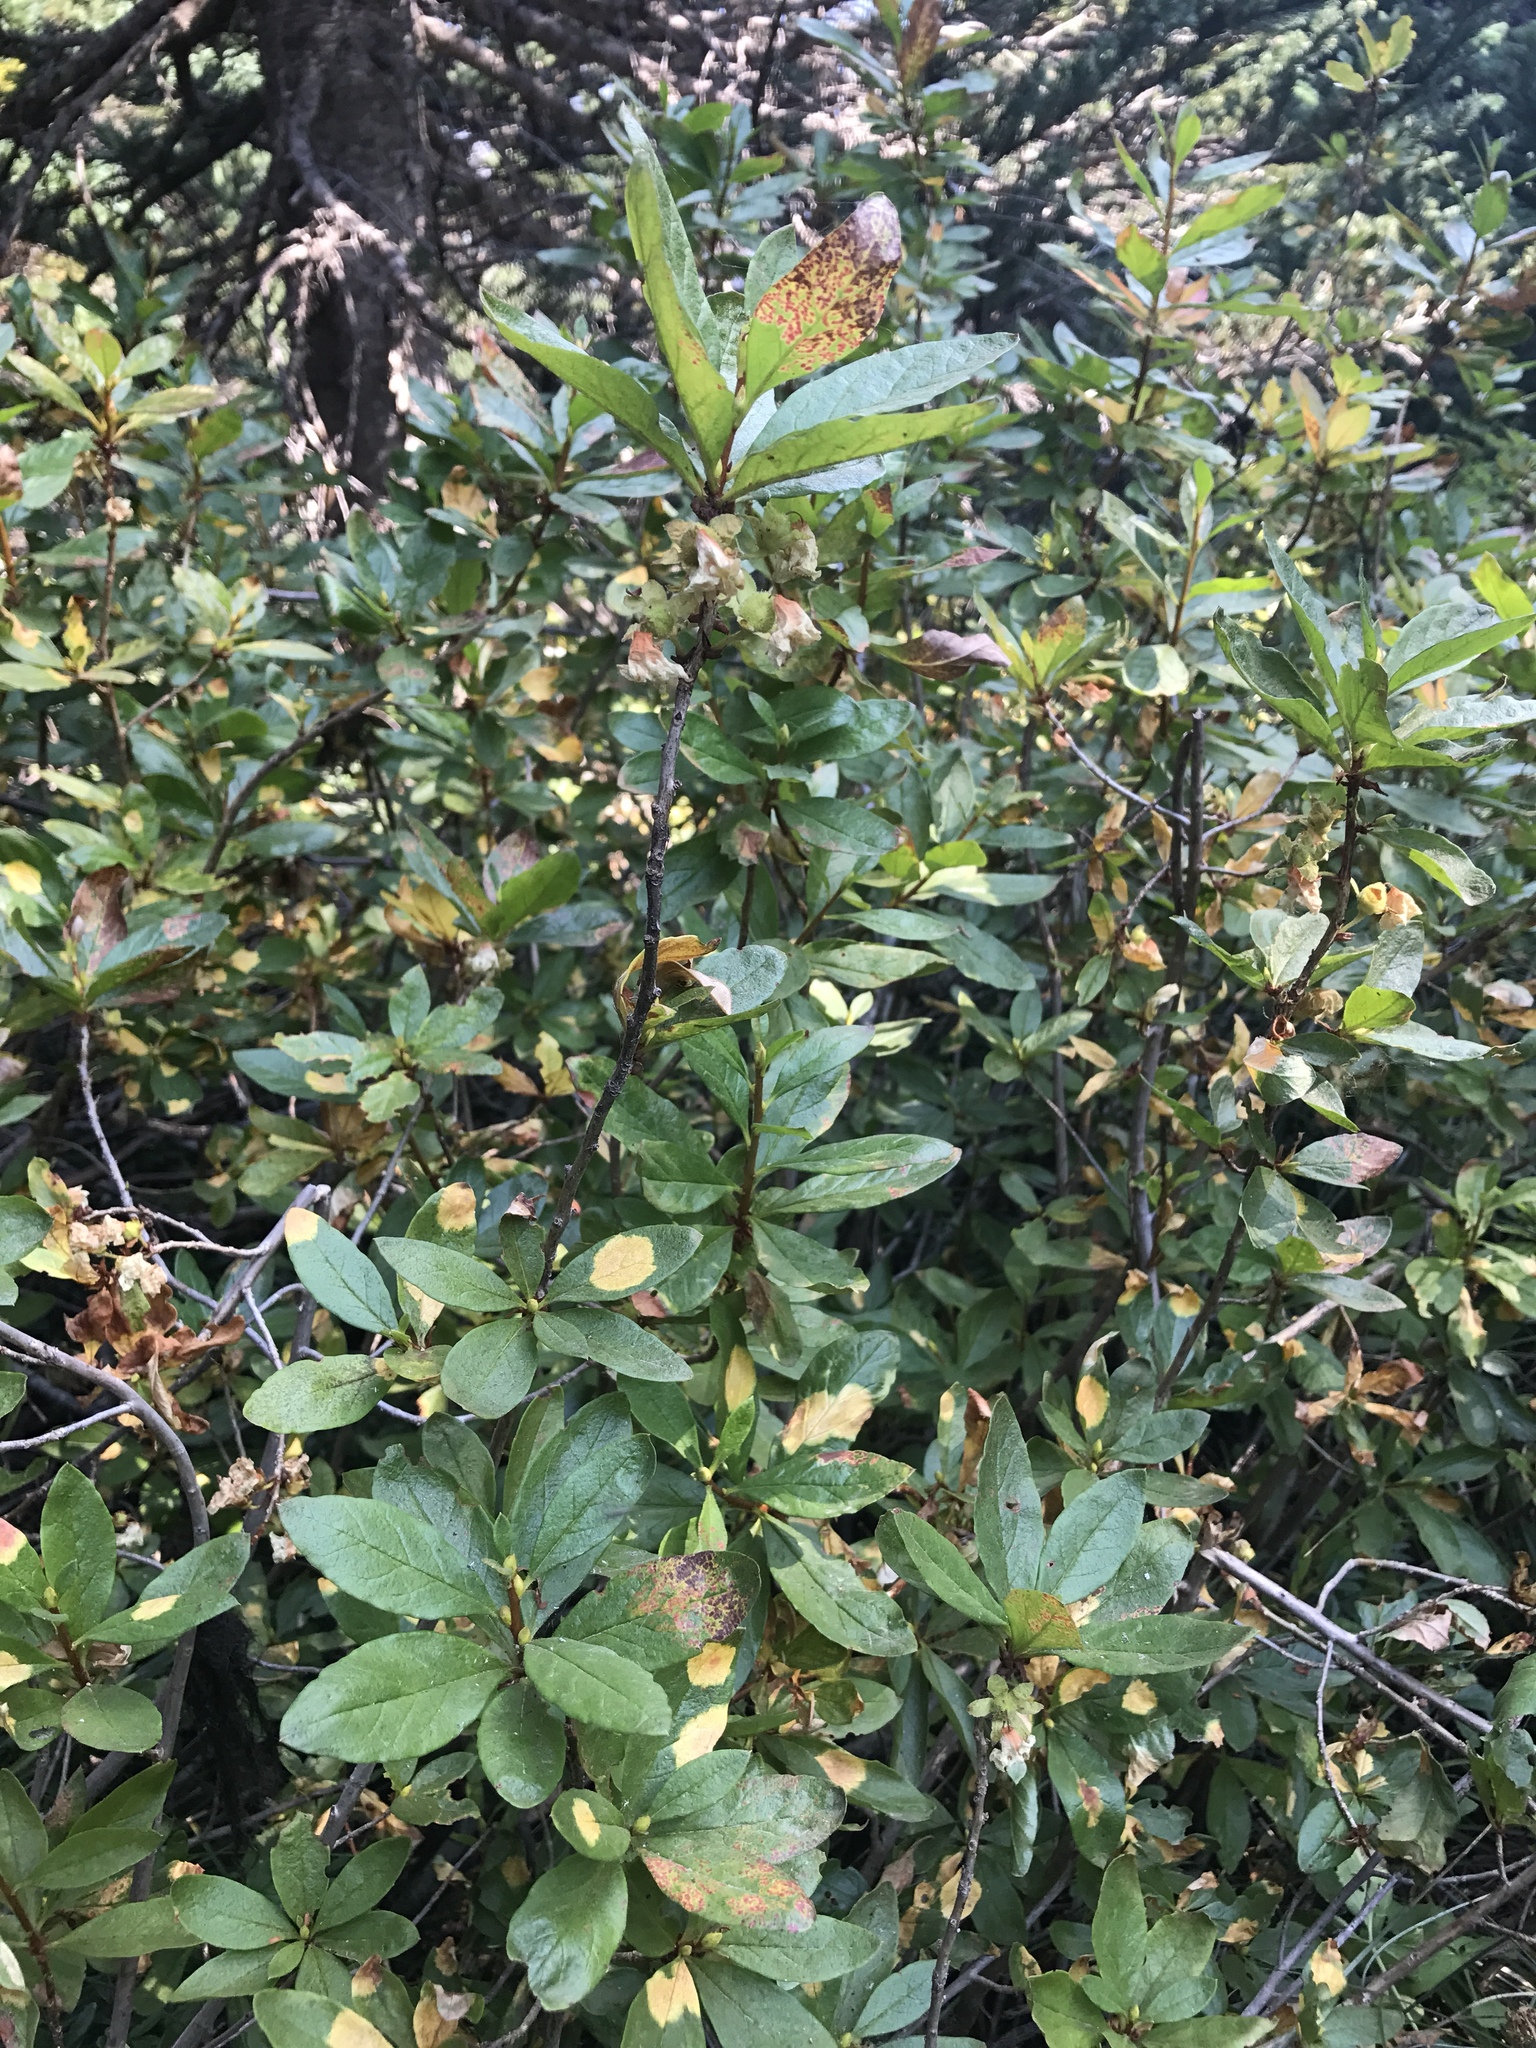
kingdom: Plantae
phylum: Tracheophyta
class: Magnoliopsida
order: Ericales
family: Ericaceae
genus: Rhododendron
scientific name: Rhododendron albiflorum
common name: White rhododendron
